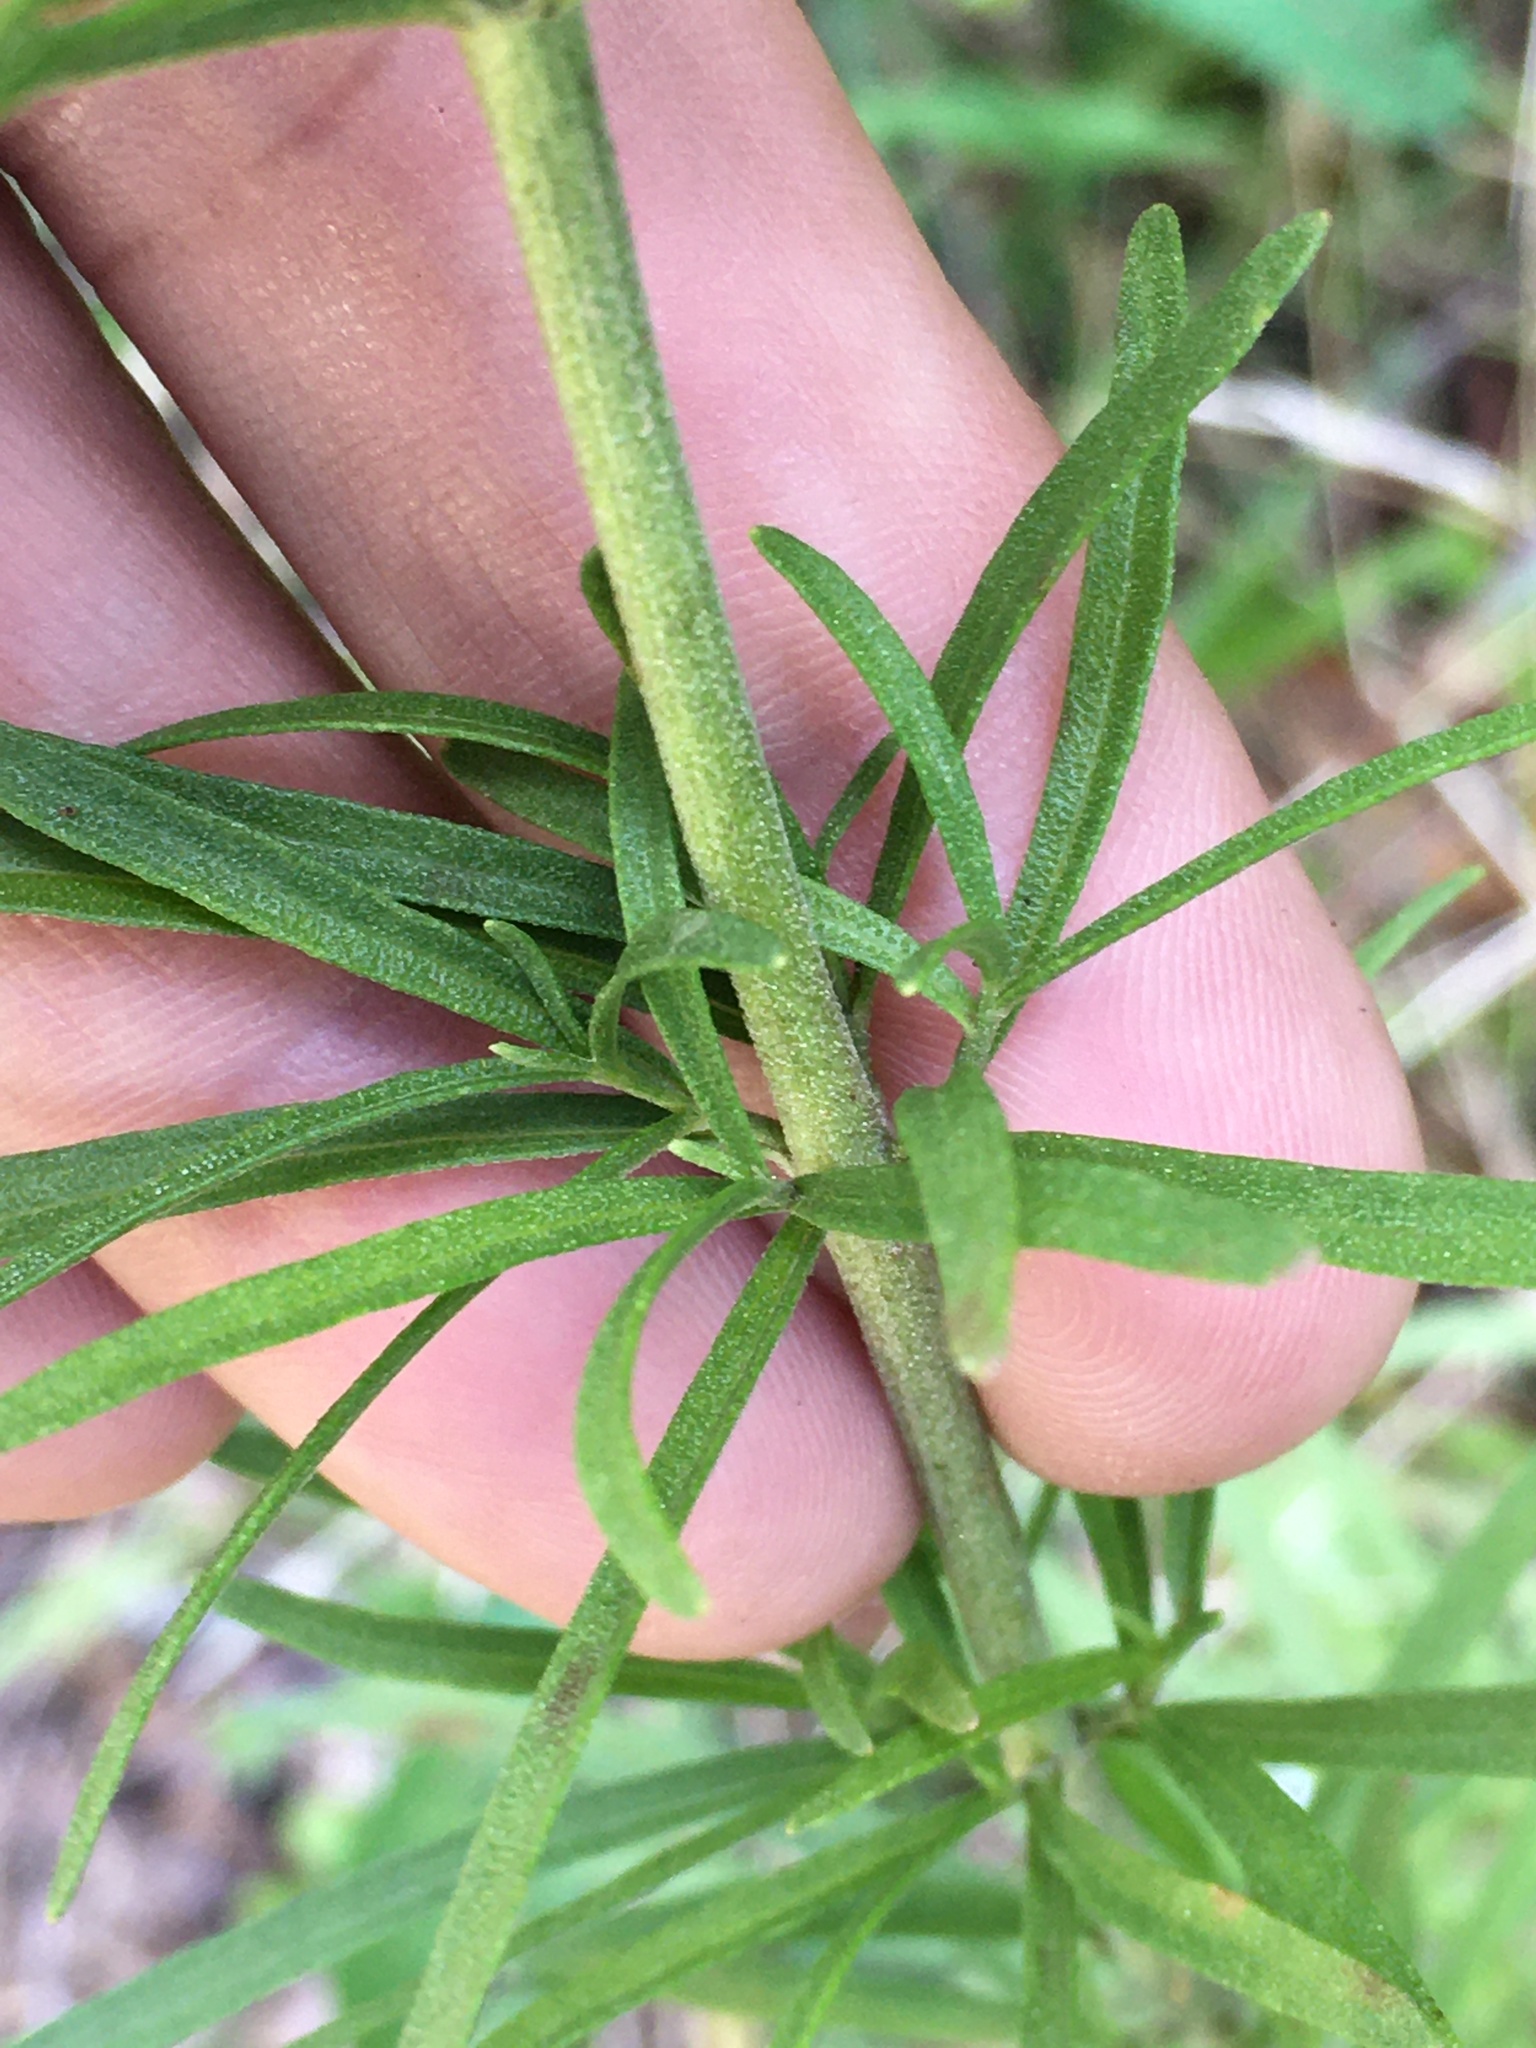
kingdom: Plantae
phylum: Tracheophyta
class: Magnoliopsida
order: Asterales
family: Asteraceae
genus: Eupatorium
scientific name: Eupatorium hyssopifolium
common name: Hyssop-leaf thoroughwort
